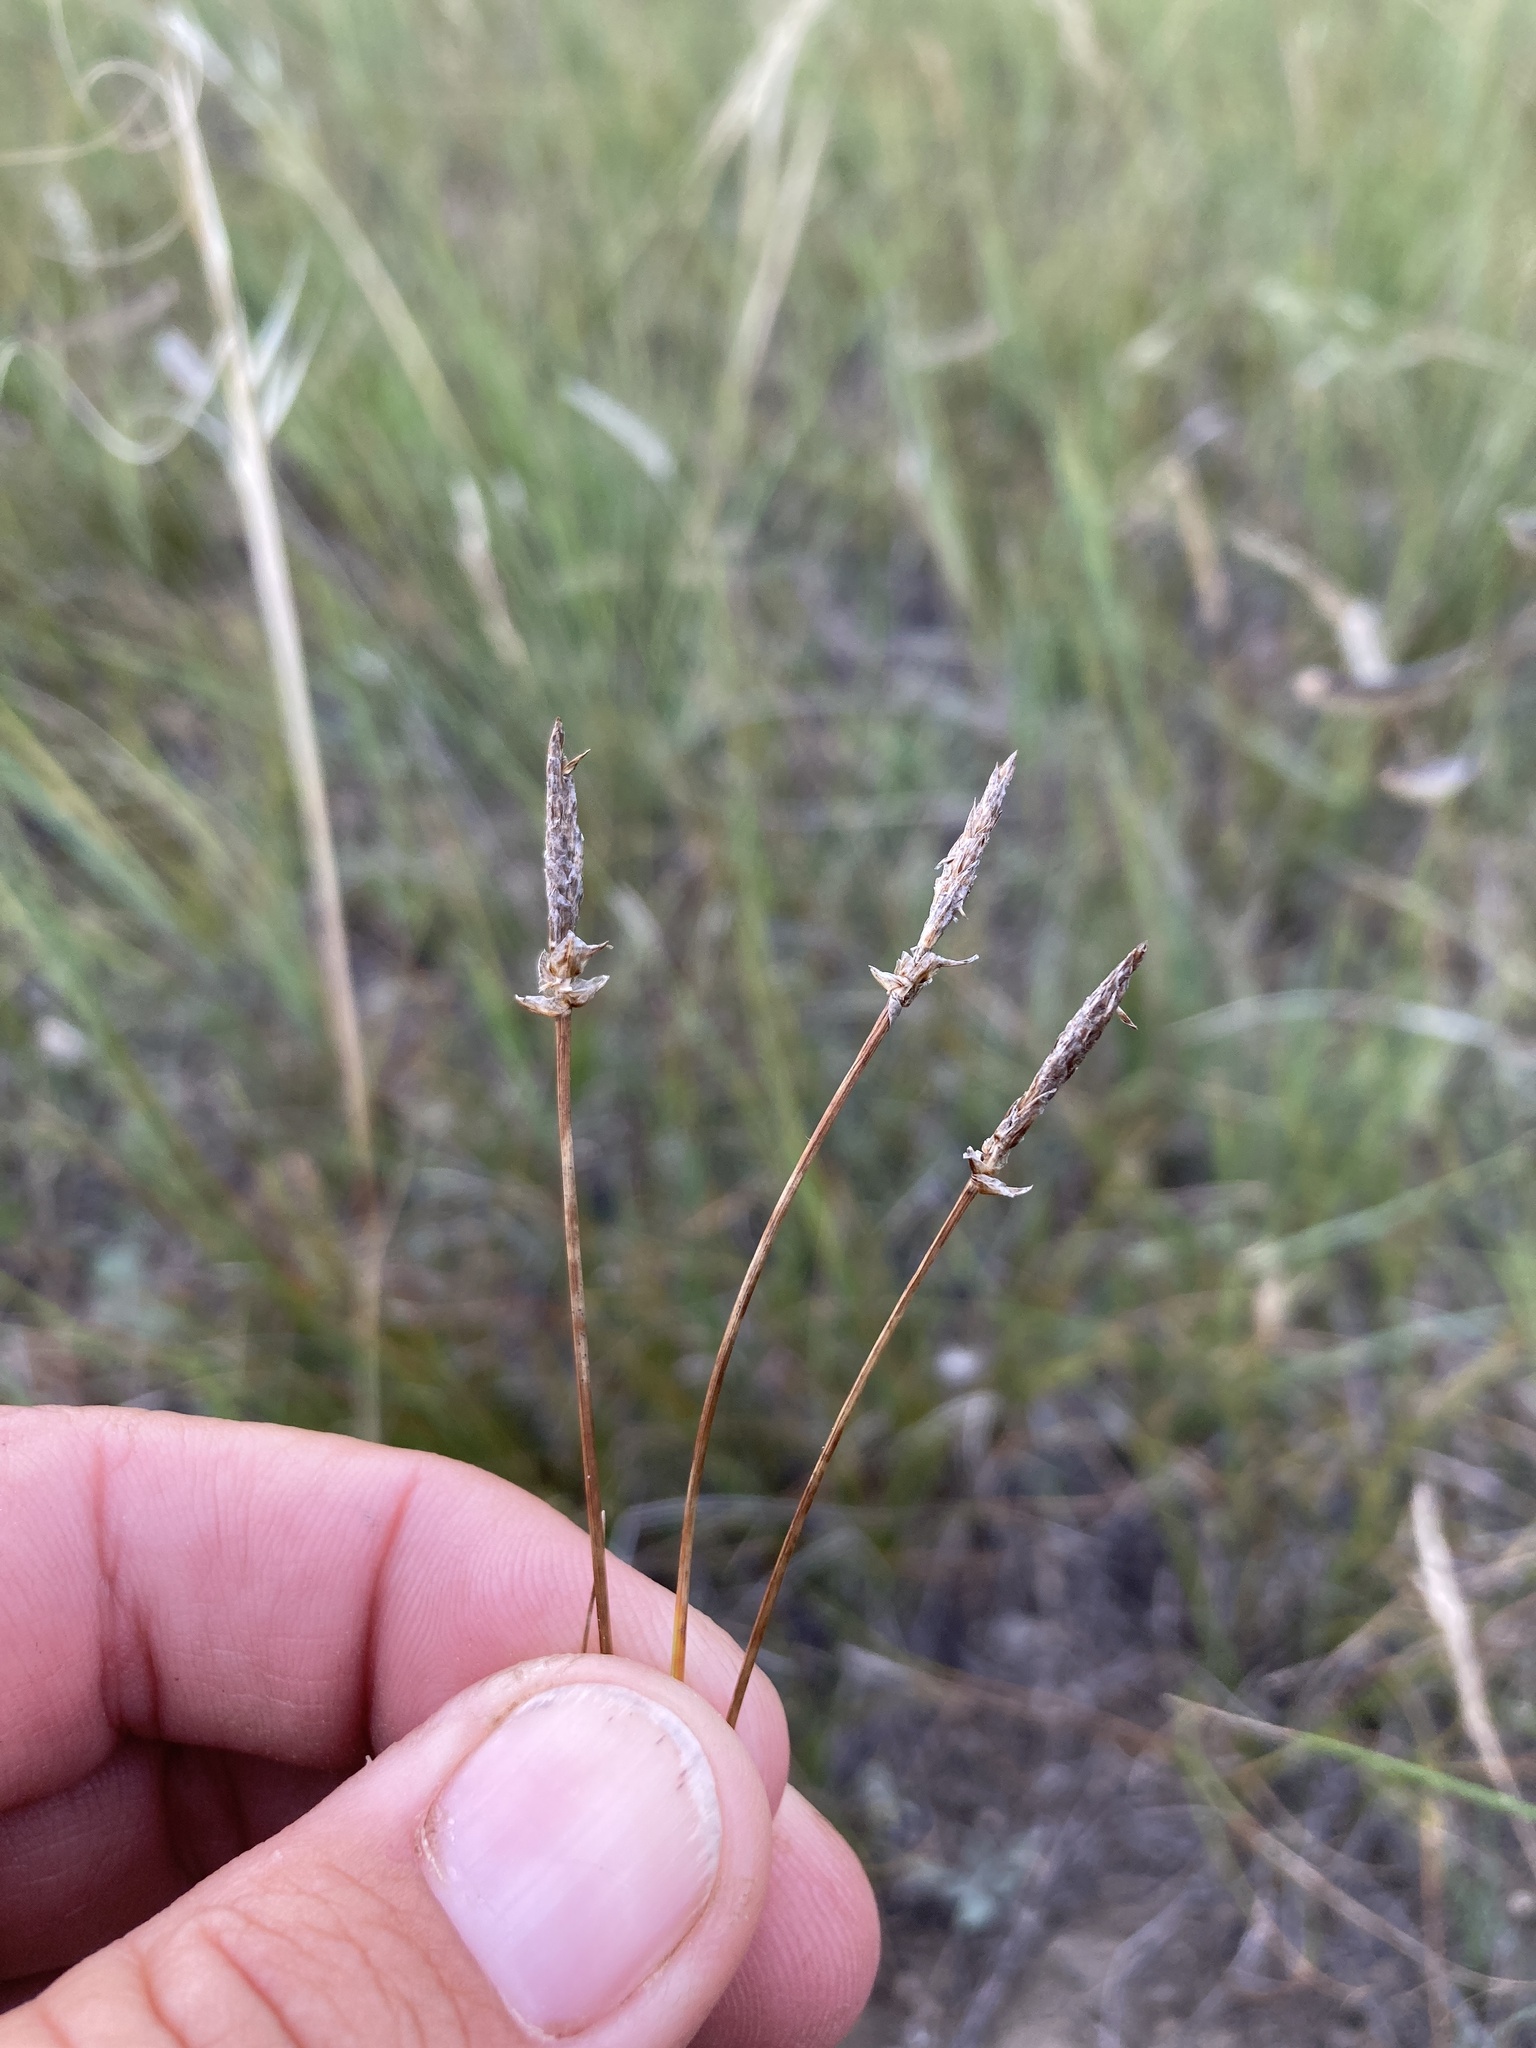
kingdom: Plantae
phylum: Tracheophyta
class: Liliopsida
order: Poales
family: Cyperaceae
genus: Carex
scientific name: Carex filifolia
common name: Threadleaf sedge
